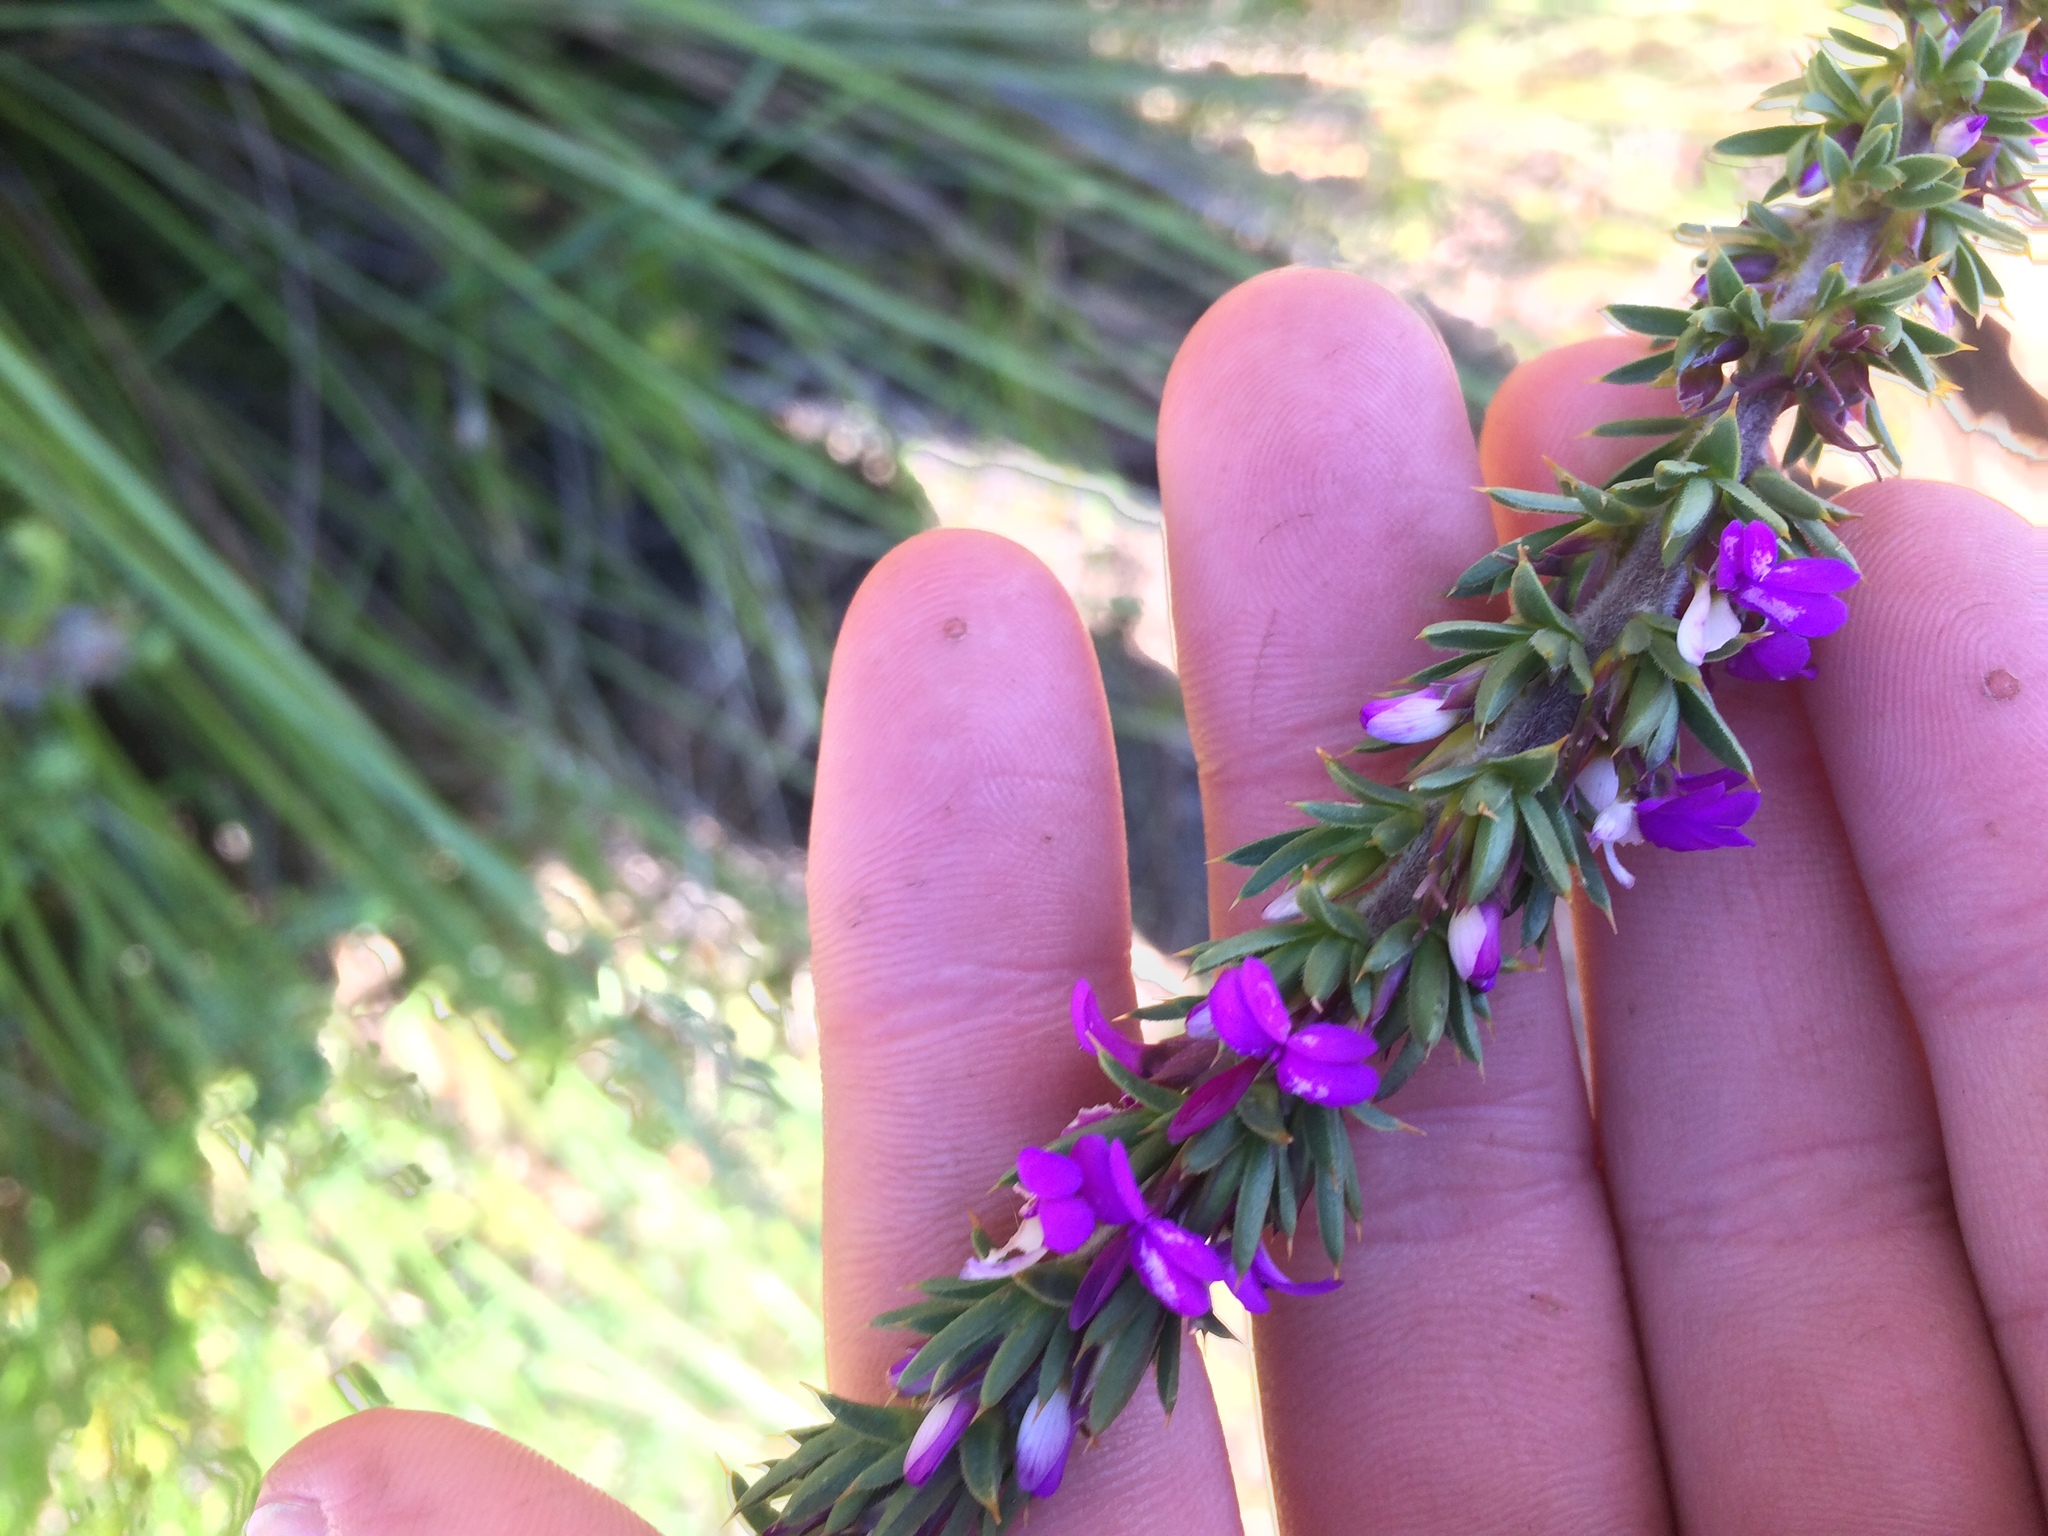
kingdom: Plantae
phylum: Tracheophyta
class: Magnoliopsida
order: Fabales
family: Polygalaceae
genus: Muraltia
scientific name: Muraltia heisteria
